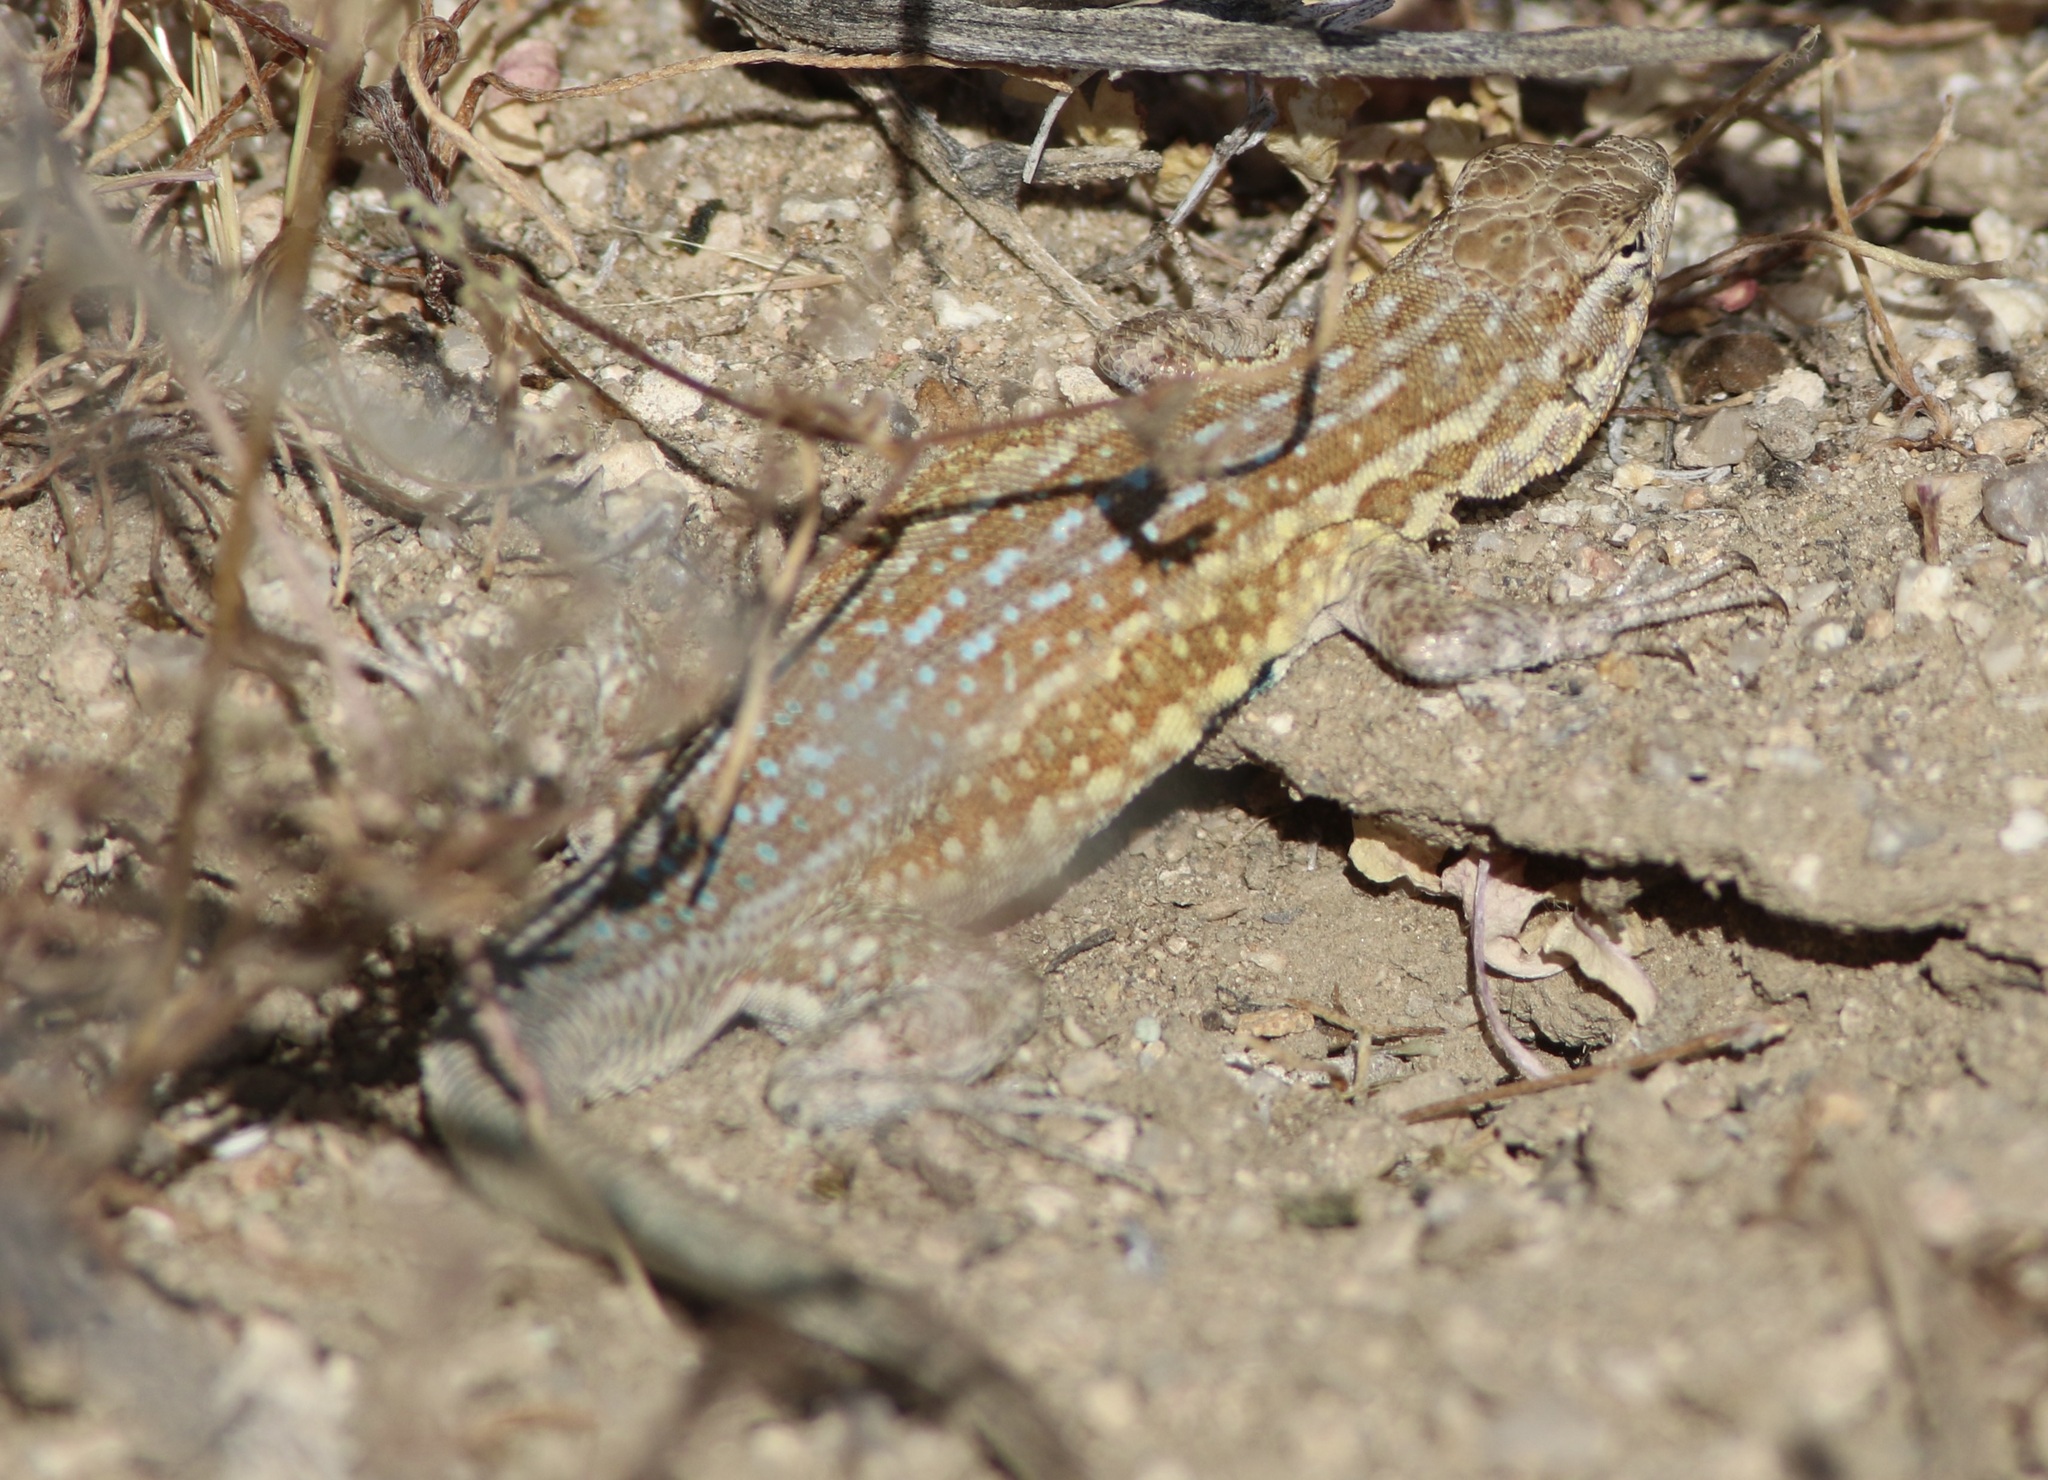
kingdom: Animalia
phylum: Chordata
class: Squamata
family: Phrynosomatidae
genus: Uta
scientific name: Uta stansburiana
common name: Side-blotched lizard
